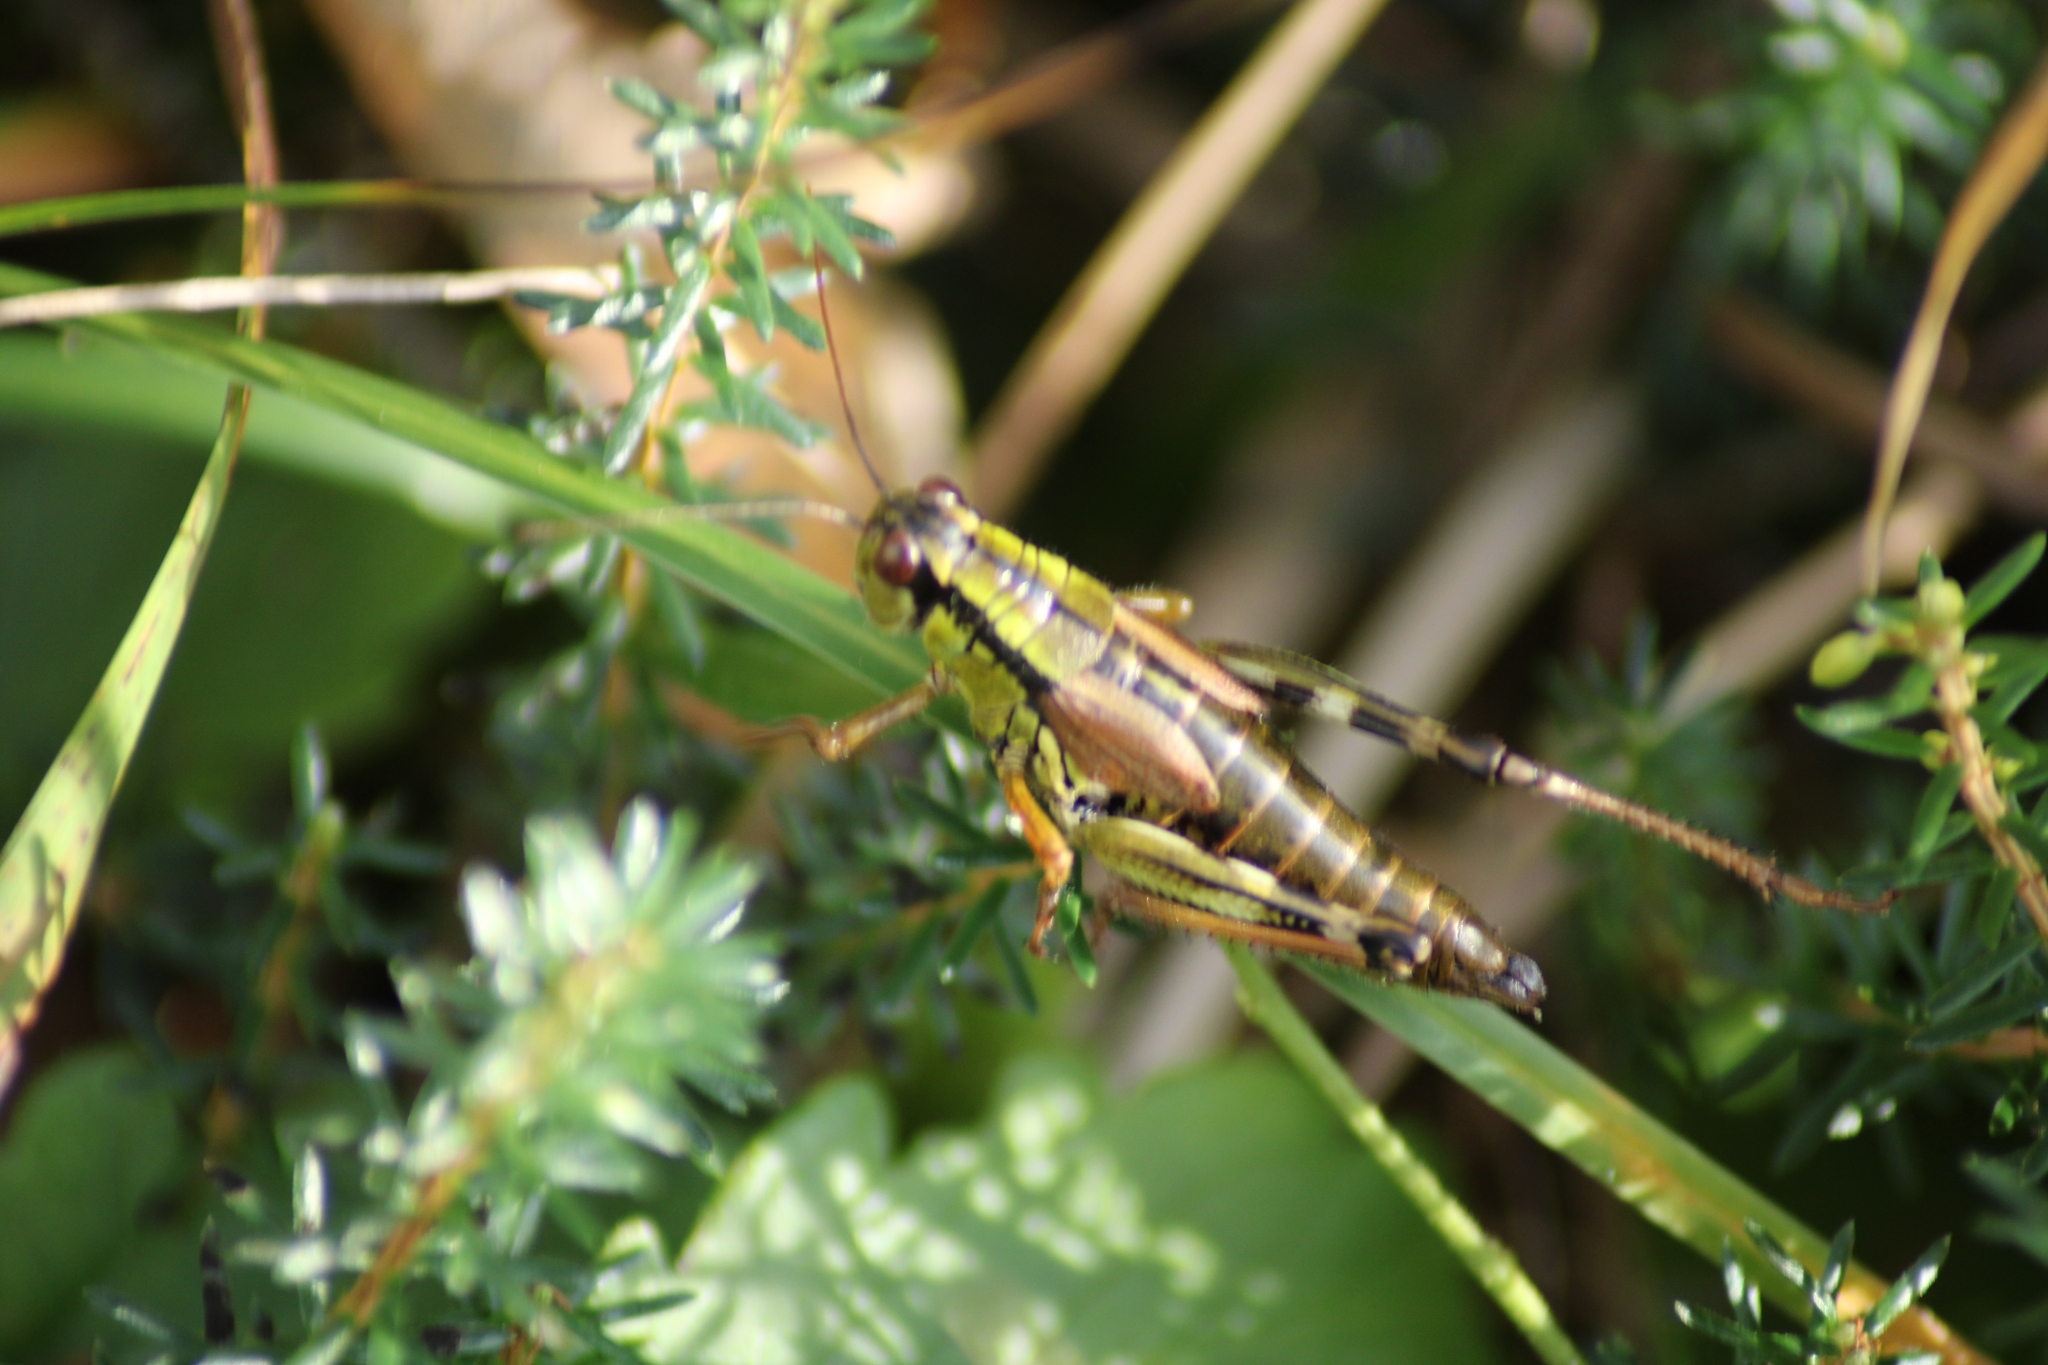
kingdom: Animalia
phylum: Arthropoda
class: Insecta
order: Orthoptera
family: Acrididae
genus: Miramella
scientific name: Miramella alpina
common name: Green mountain grasshopper
